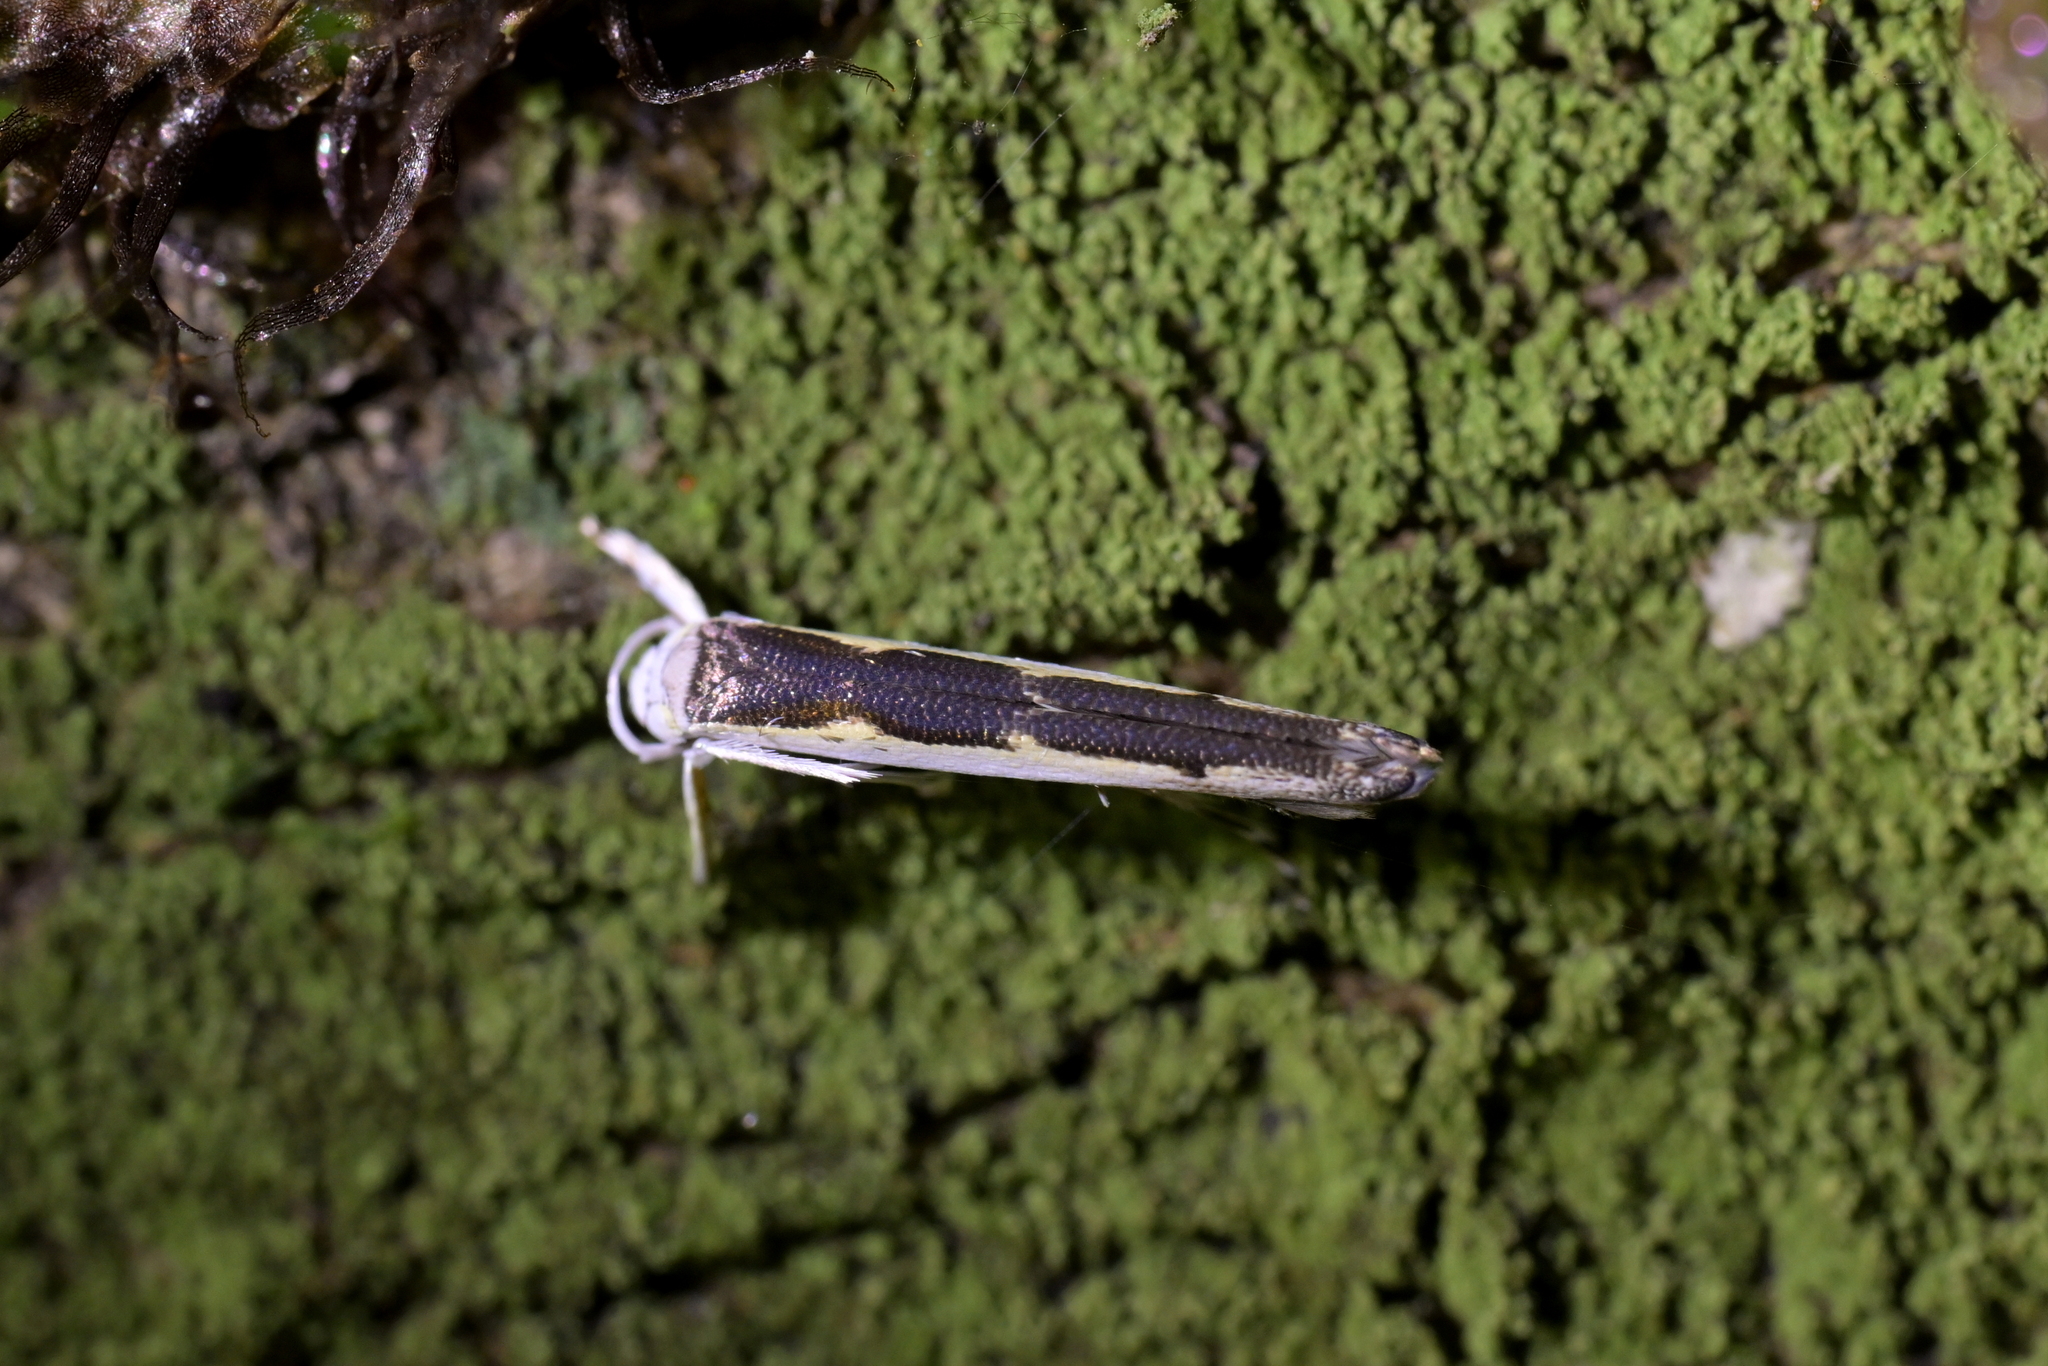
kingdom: Animalia
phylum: Arthropoda
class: Insecta
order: Lepidoptera
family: Roeslerstammiidae
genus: Vanicela
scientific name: Vanicela disjunctella
